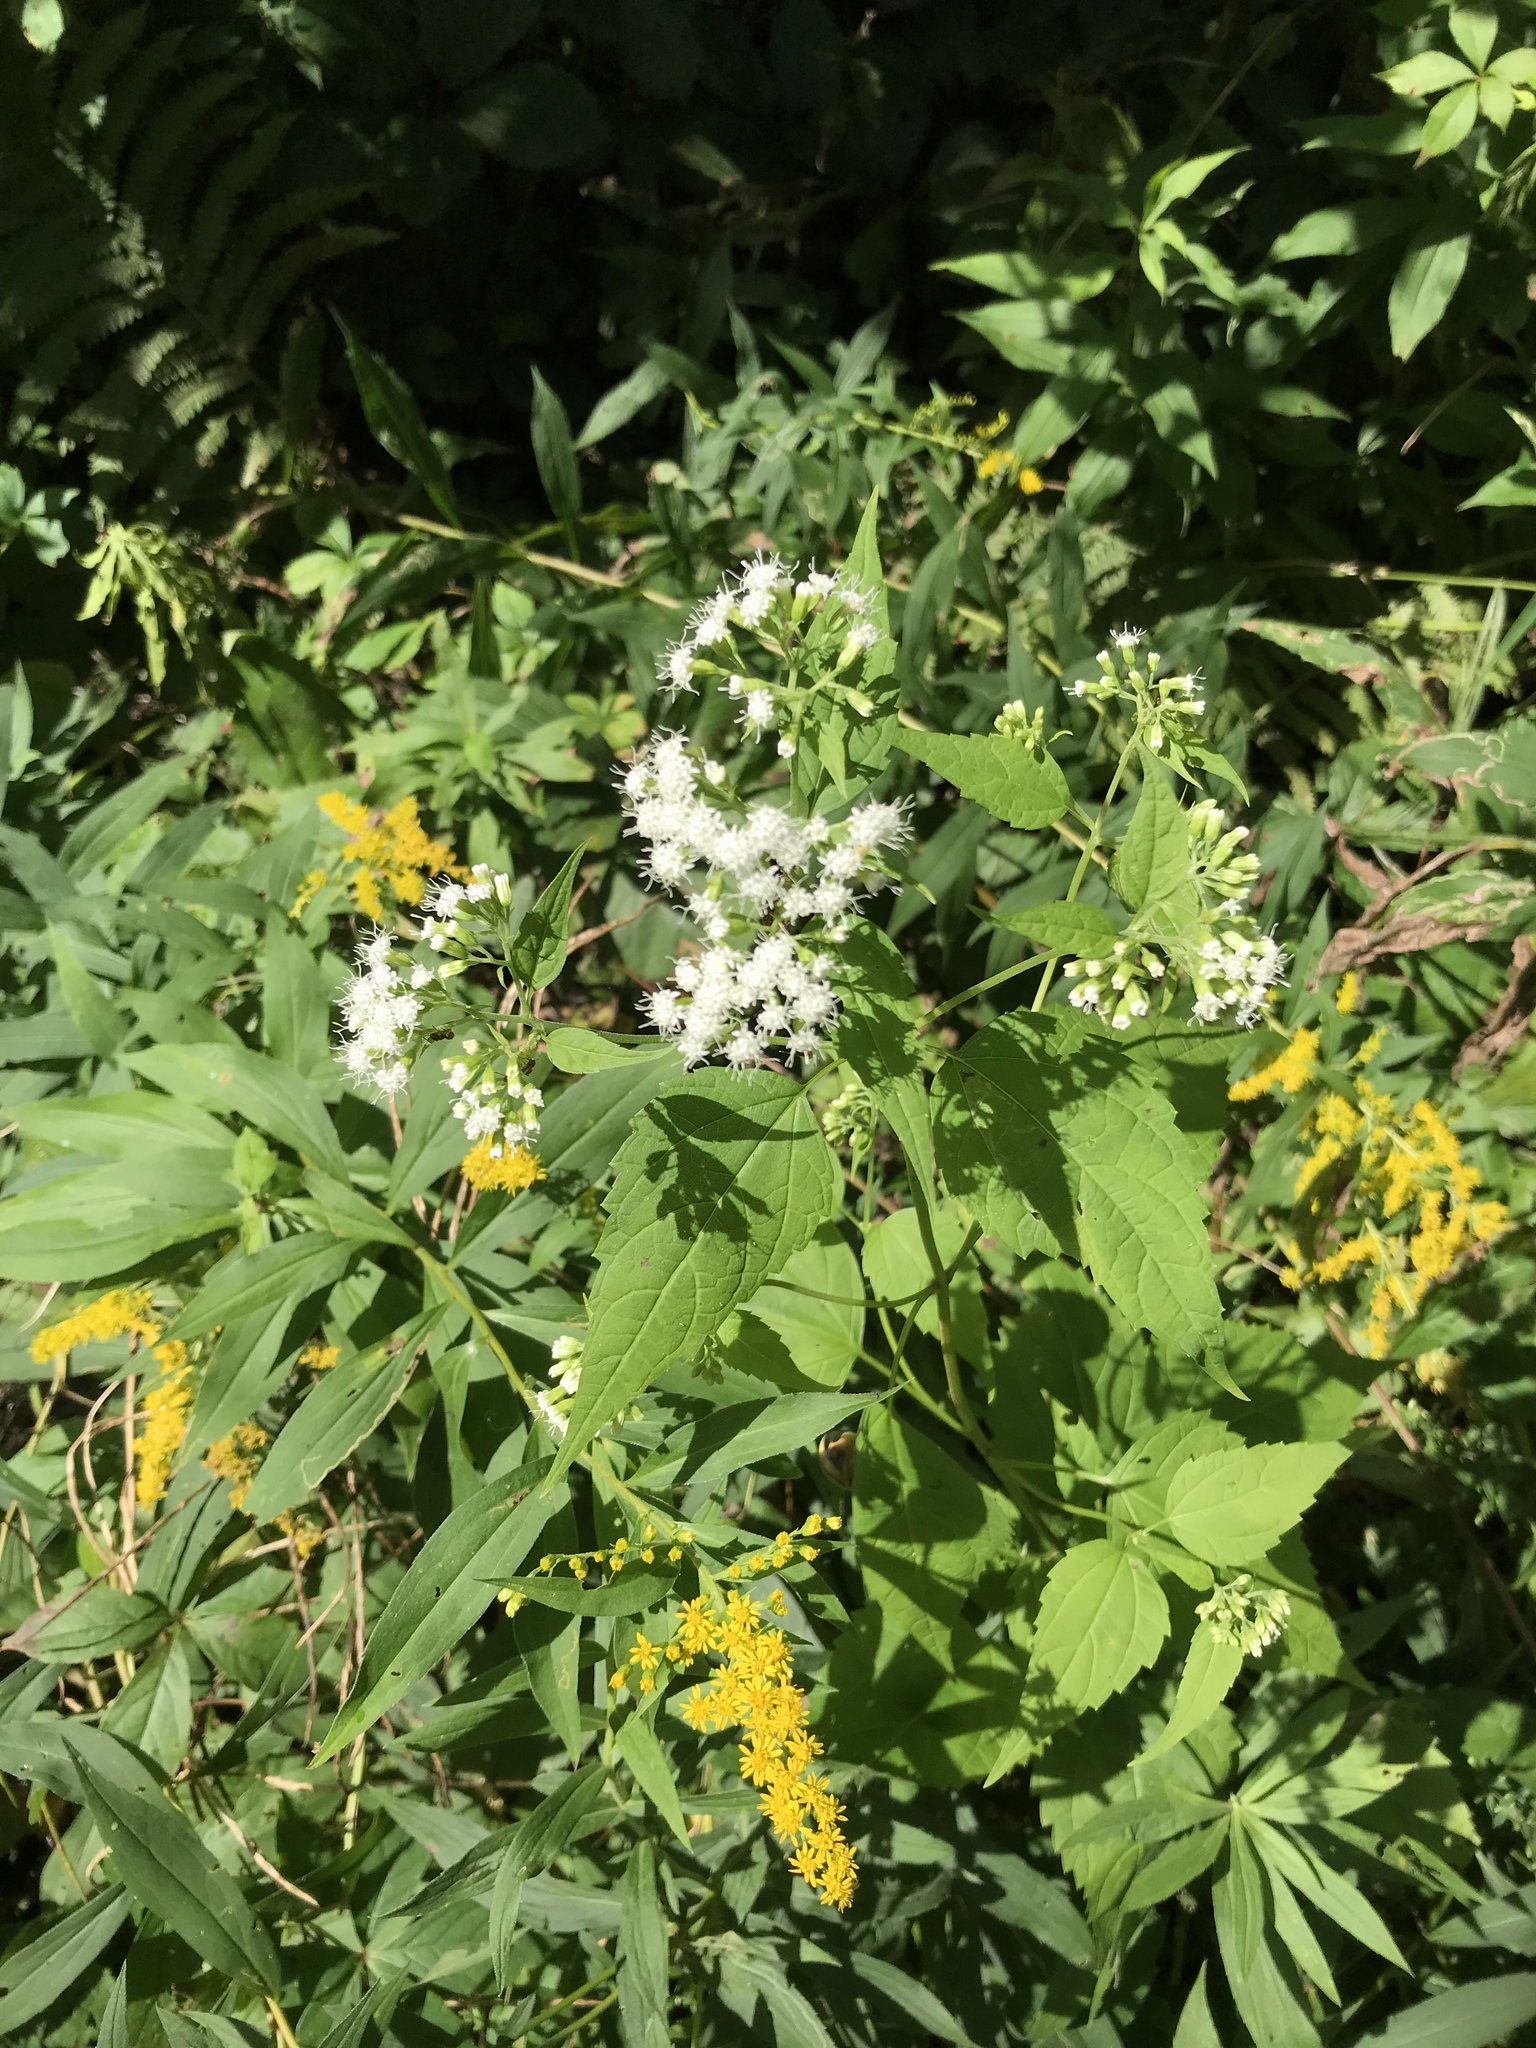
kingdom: Plantae
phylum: Tracheophyta
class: Magnoliopsida
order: Asterales
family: Asteraceae
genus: Ageratina
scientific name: Ageratina altissima
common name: White snakeroot
